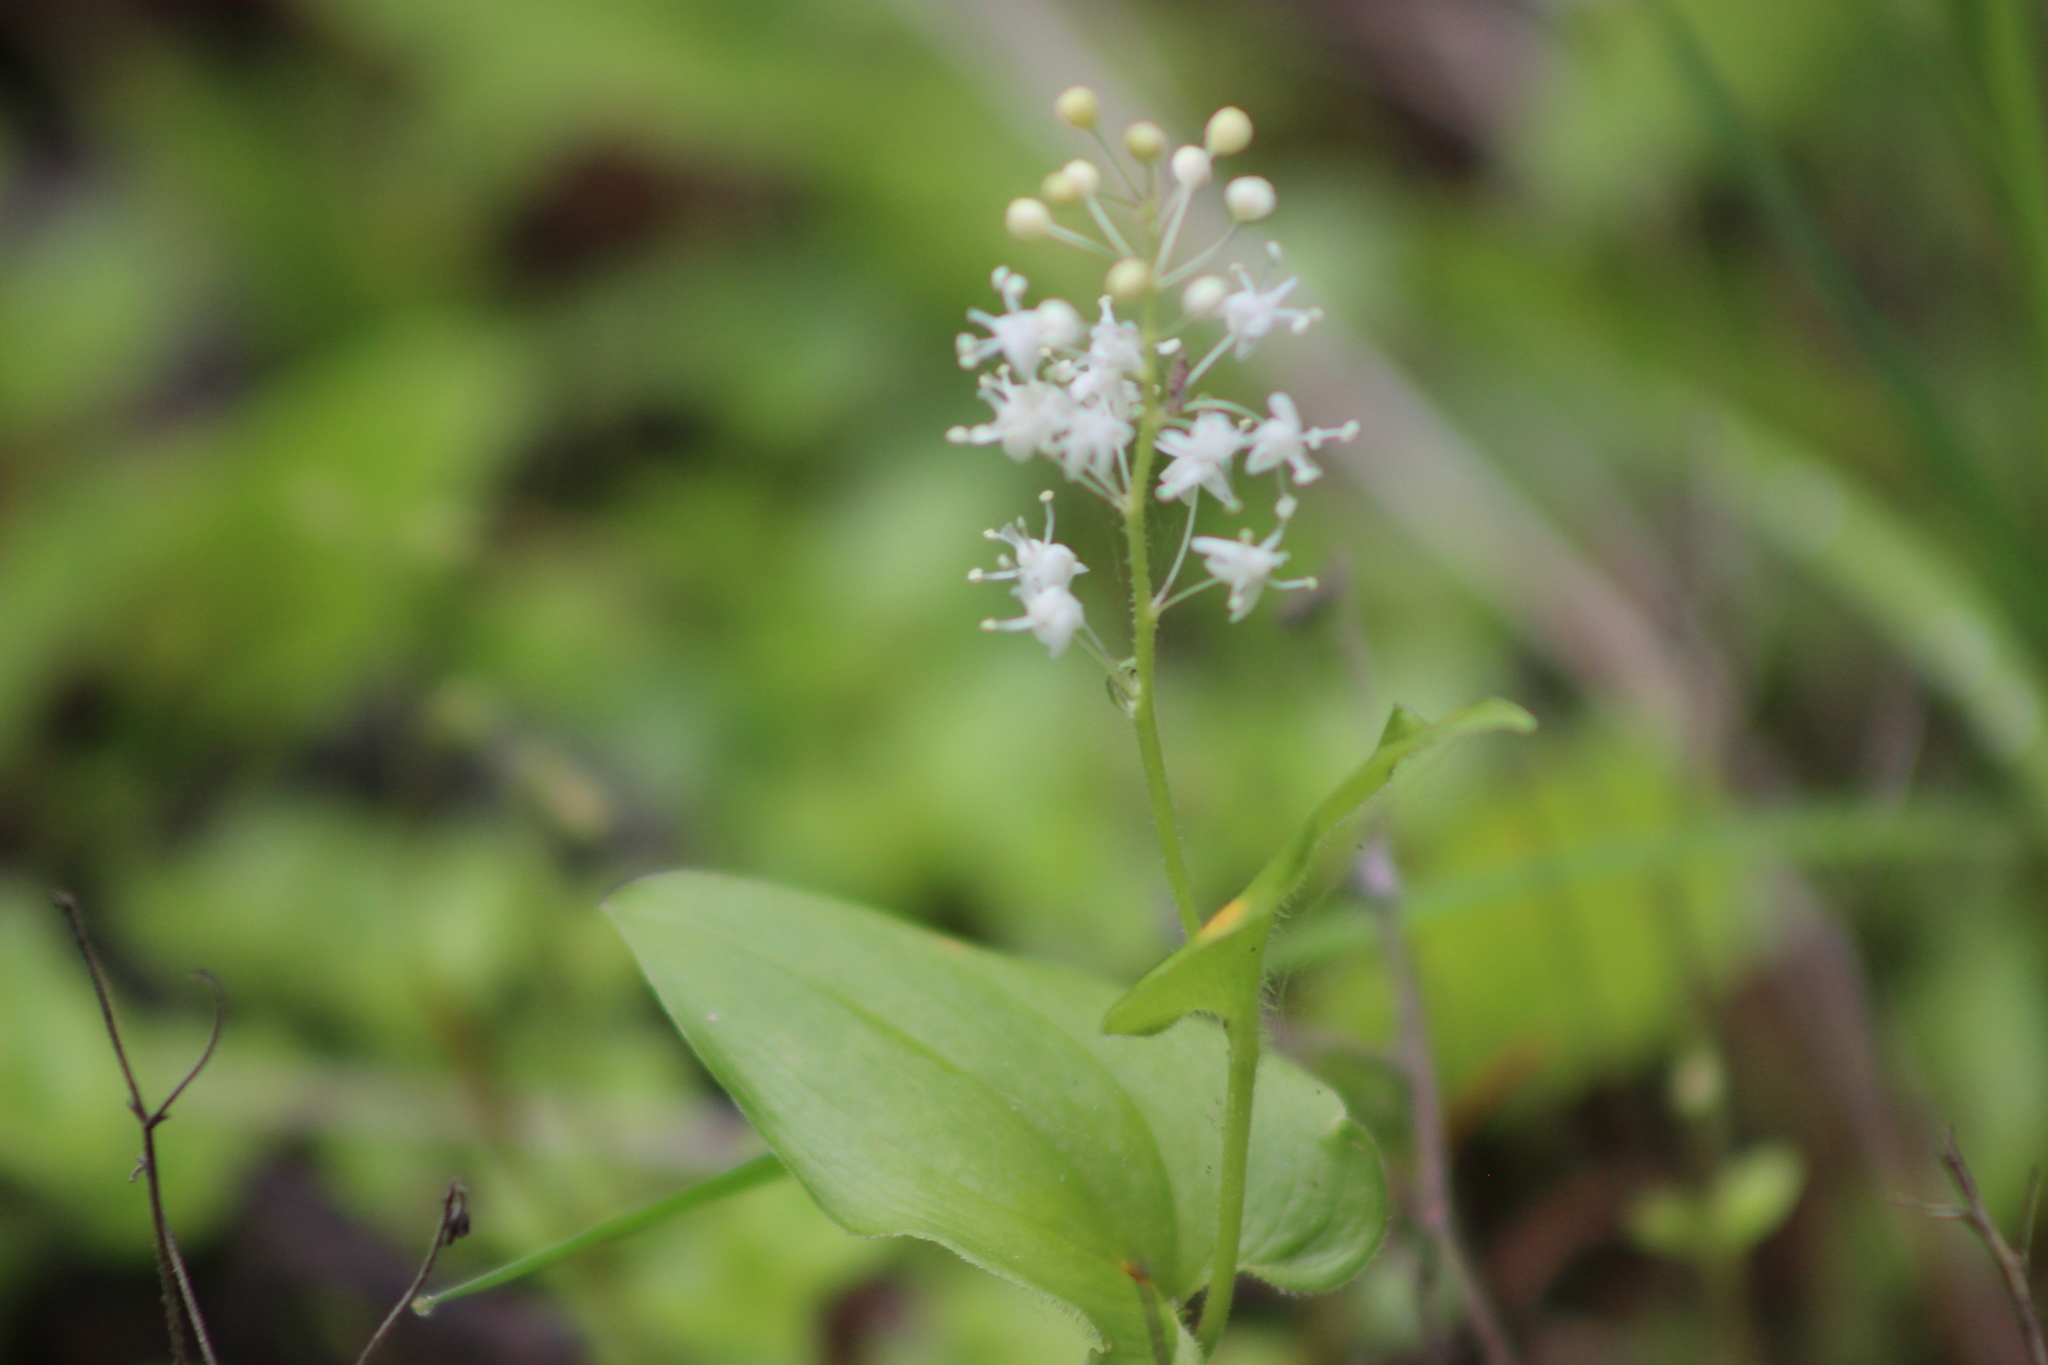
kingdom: Plantae
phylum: Tracheophyta
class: Liliopsida
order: Asparagales
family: Asparagaceae
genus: Maianthemum
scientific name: Maianthemum bifolium
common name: May lily
